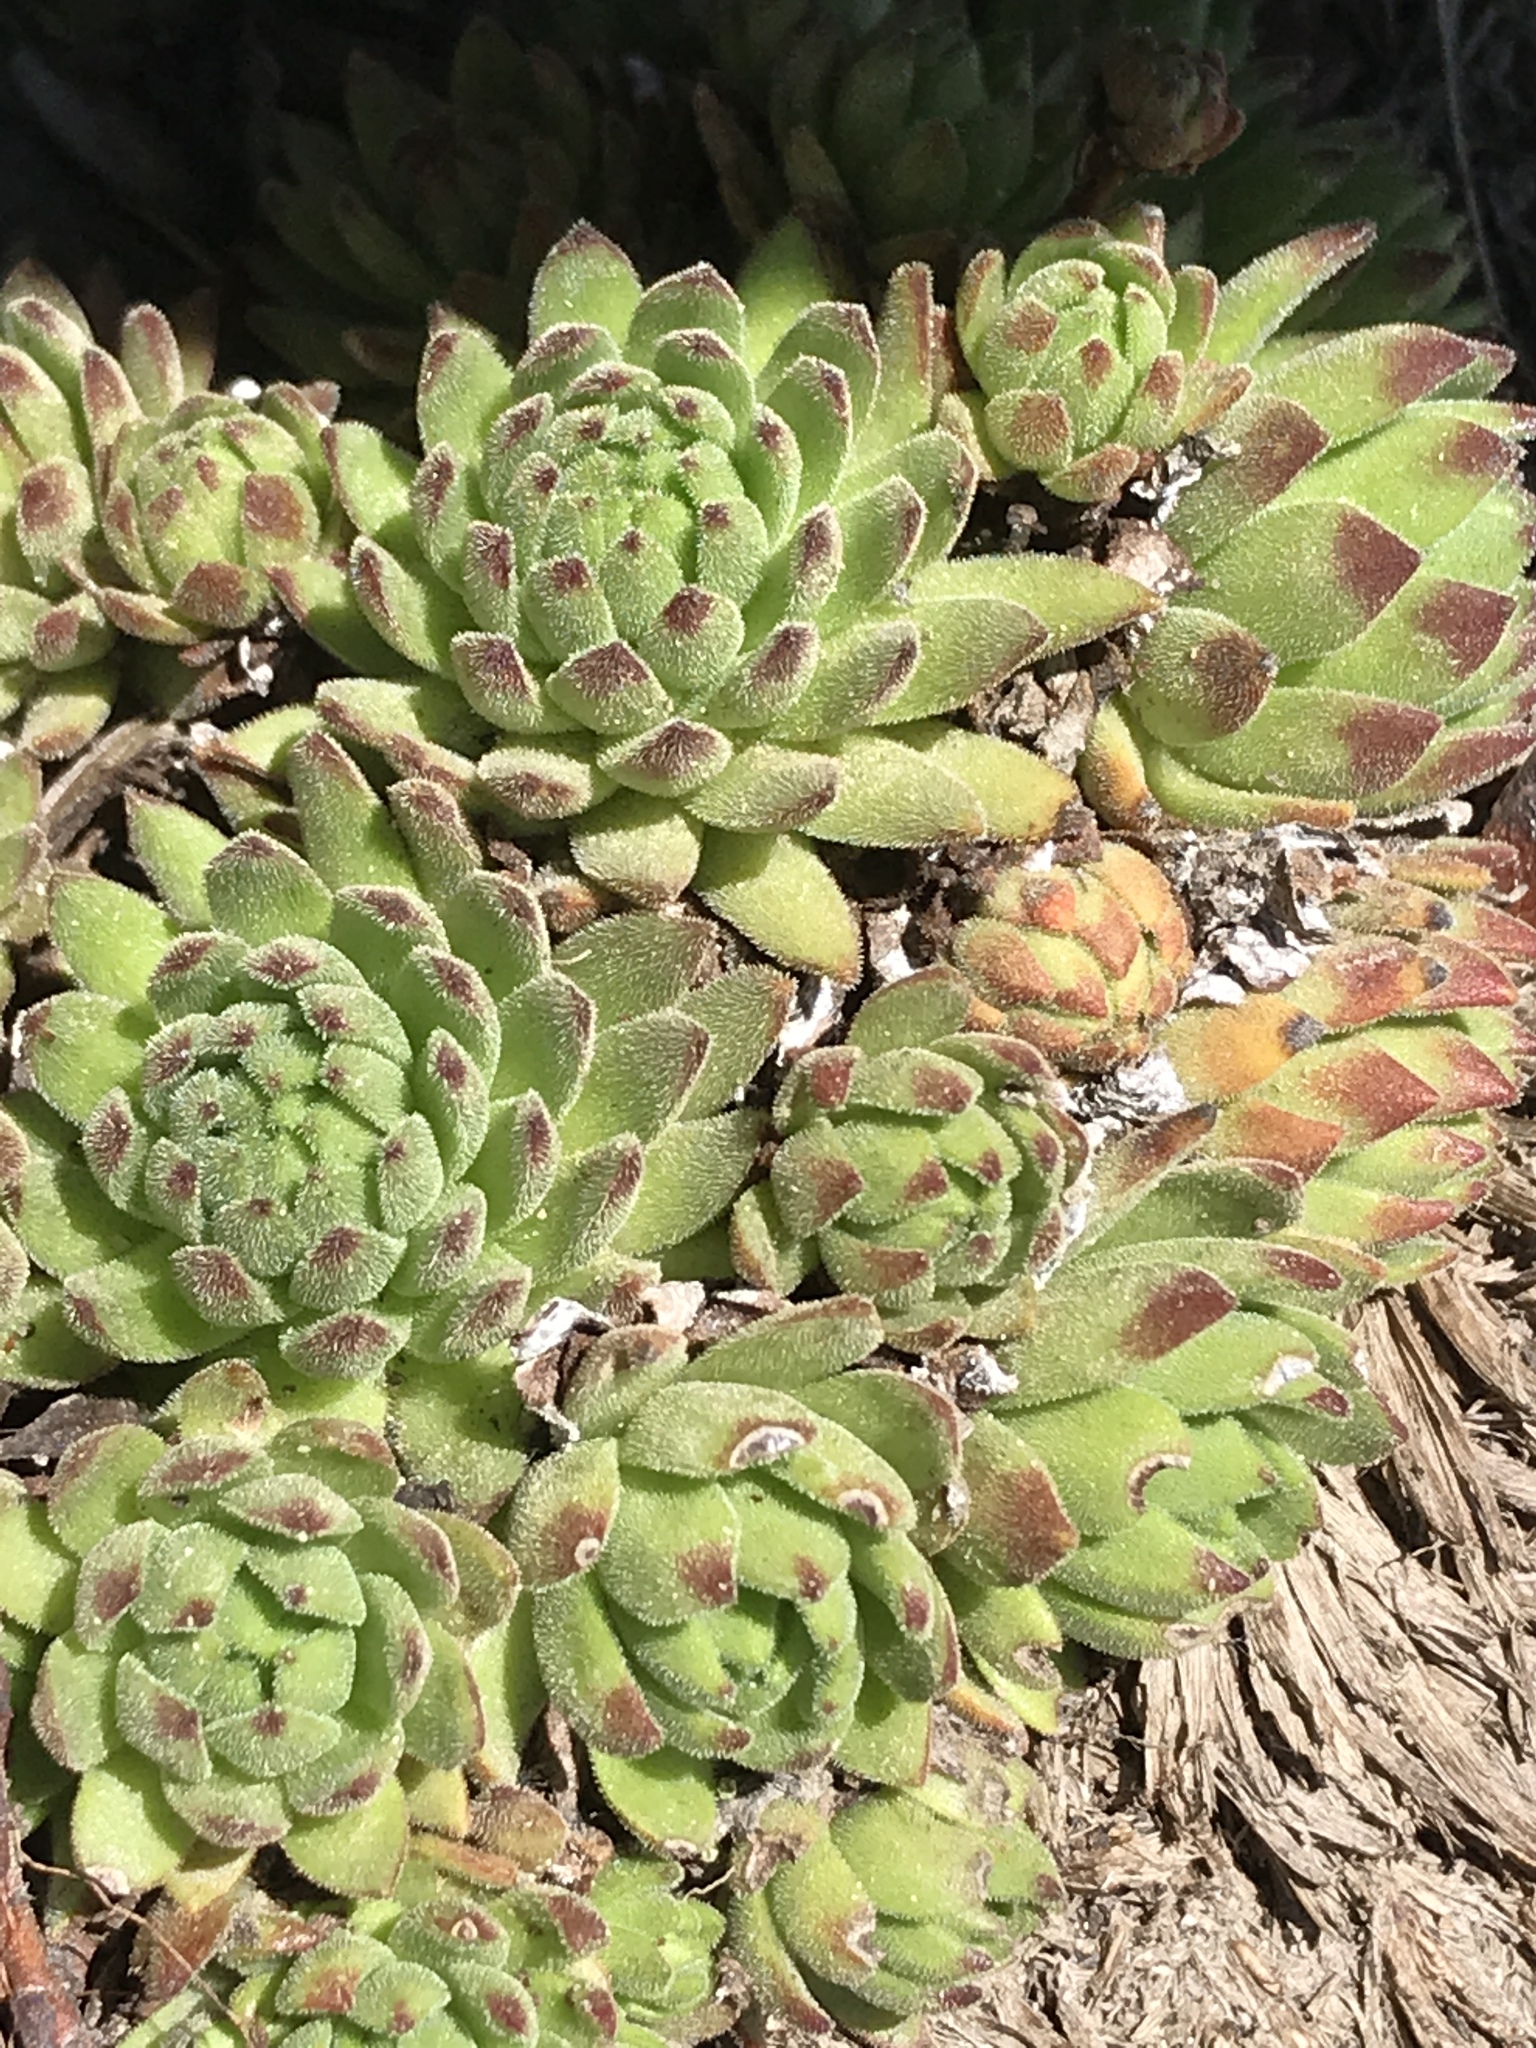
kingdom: Plantae
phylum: Tracheophyta
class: Magnoliopsida
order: Saxifragales
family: Crassulaceae
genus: Sempervivum
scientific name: Sempervivum montanum
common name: Mountain house-leek
